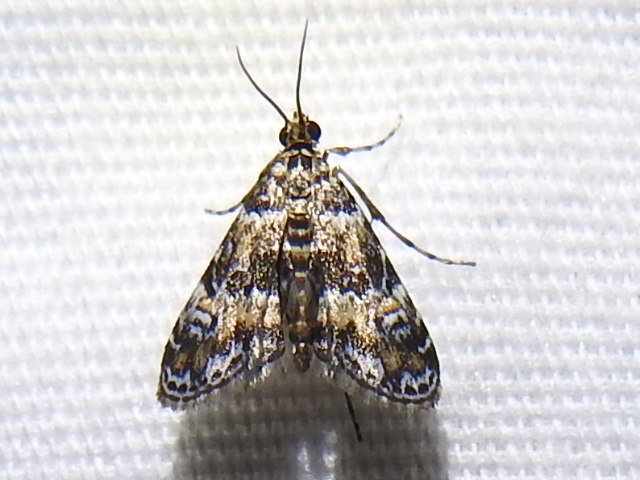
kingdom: Animalia
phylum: Arthropoda
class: Insecta
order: Lepidoptera
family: Crambidae
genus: Elophila
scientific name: Elophila obliteralis
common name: Waterlily leafcutter moth
